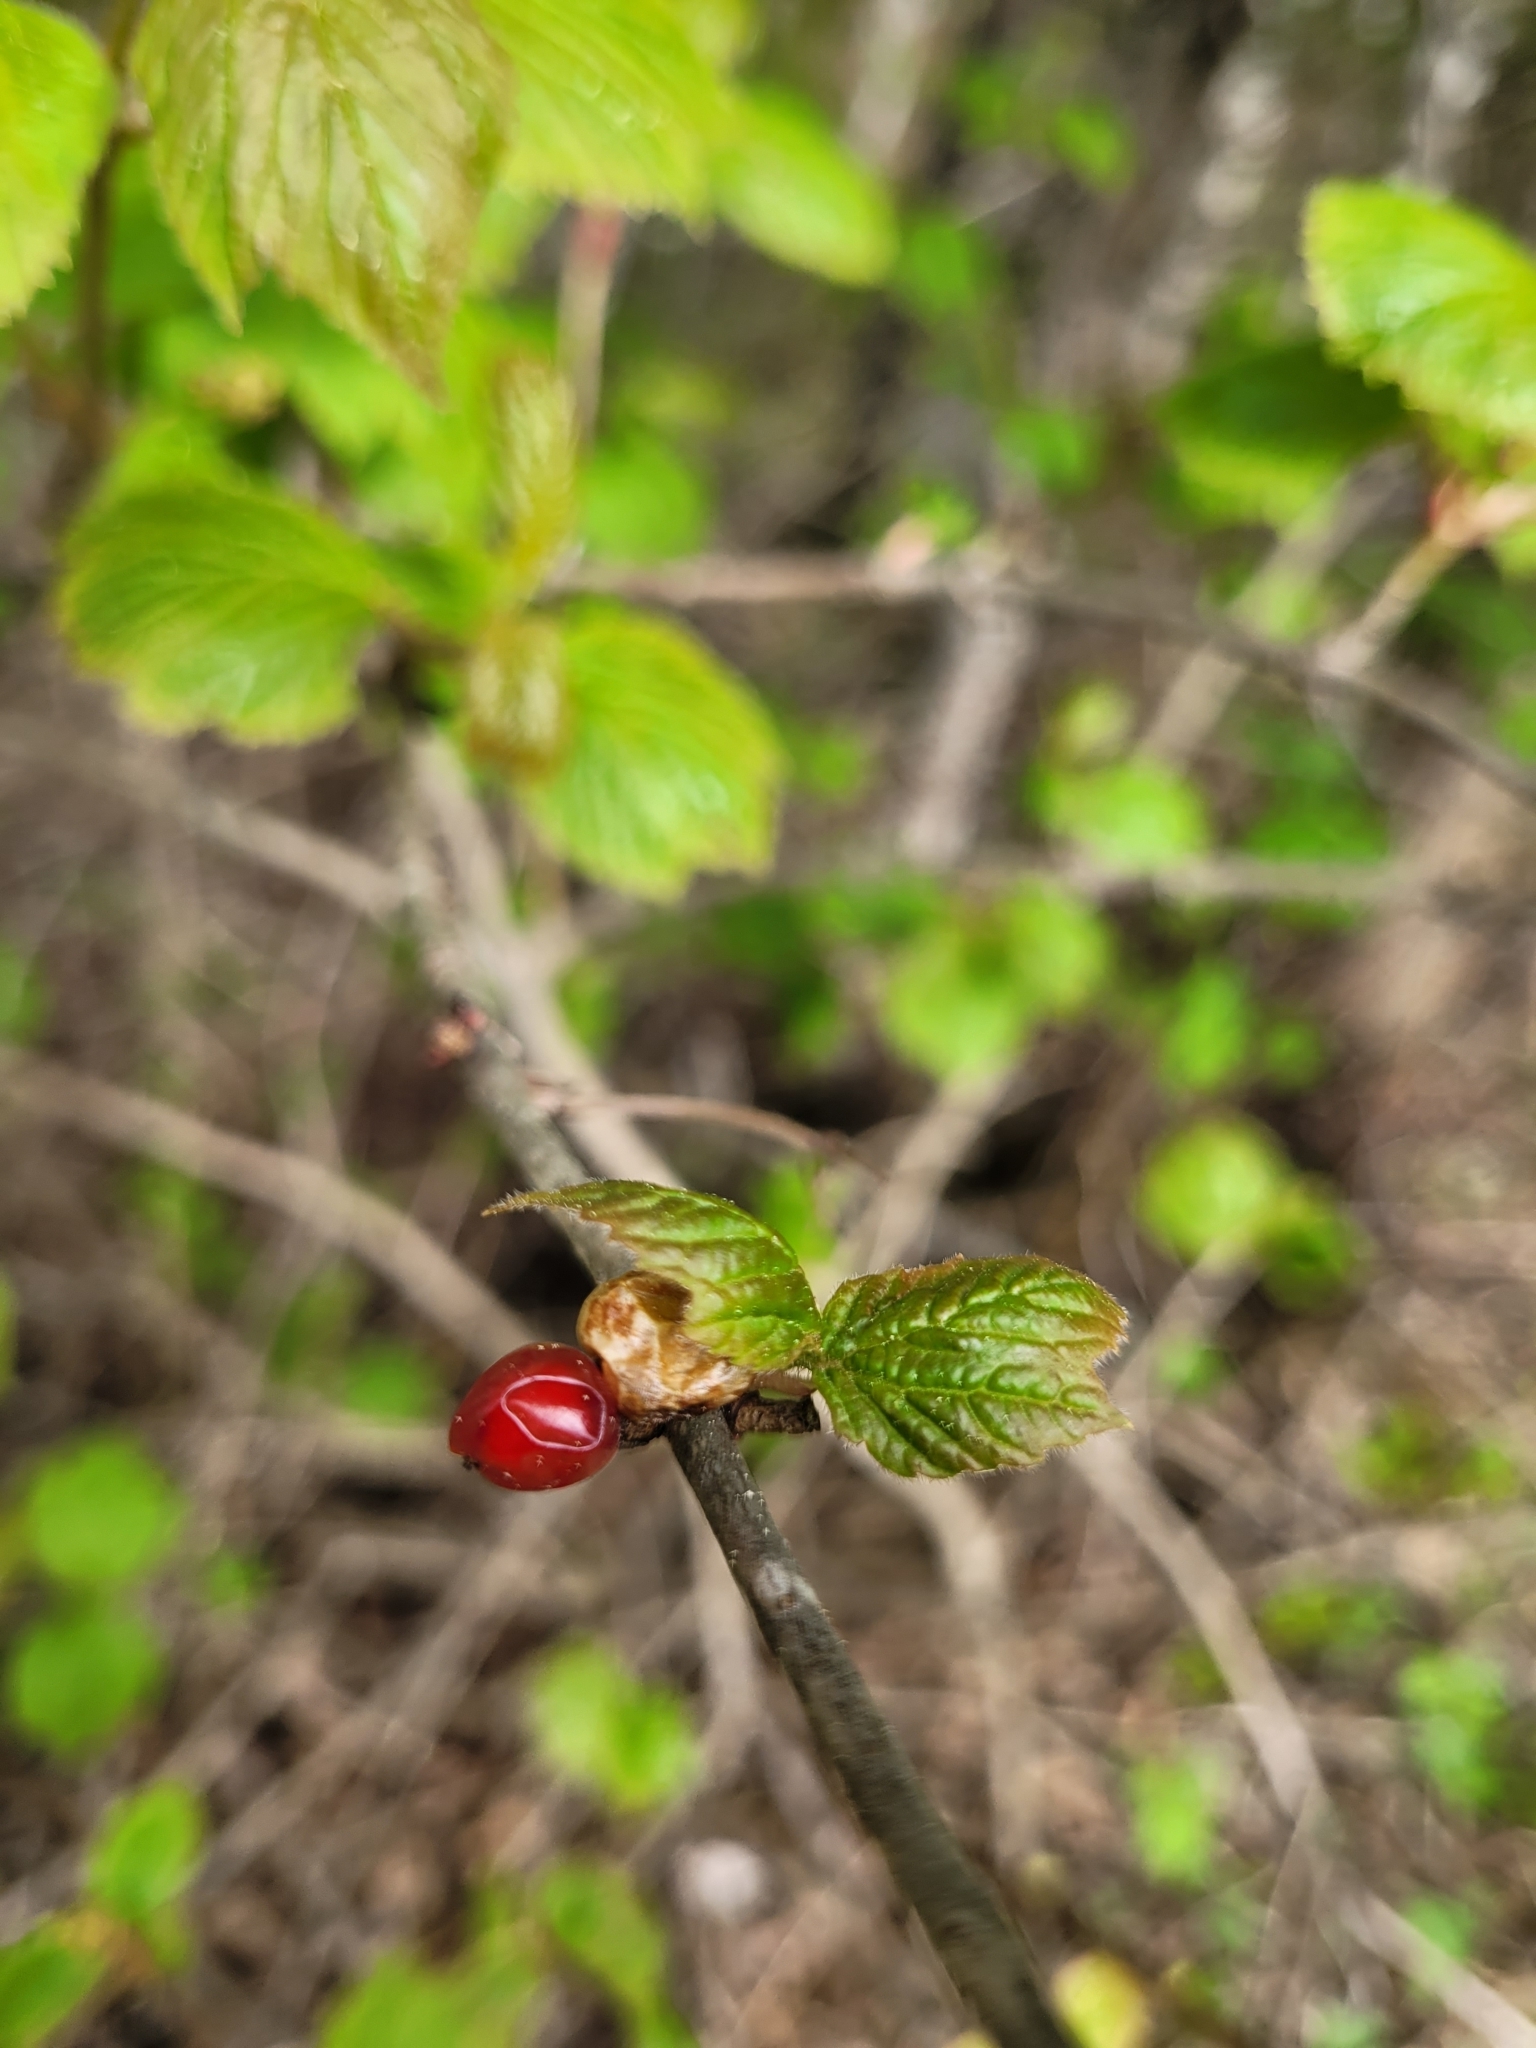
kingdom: Plantae
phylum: Tracheophyta
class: Magnoliopsida
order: Dipsacales
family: Viburnaceae
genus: Viburnum
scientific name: Viburnum edule
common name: Mooseberry
